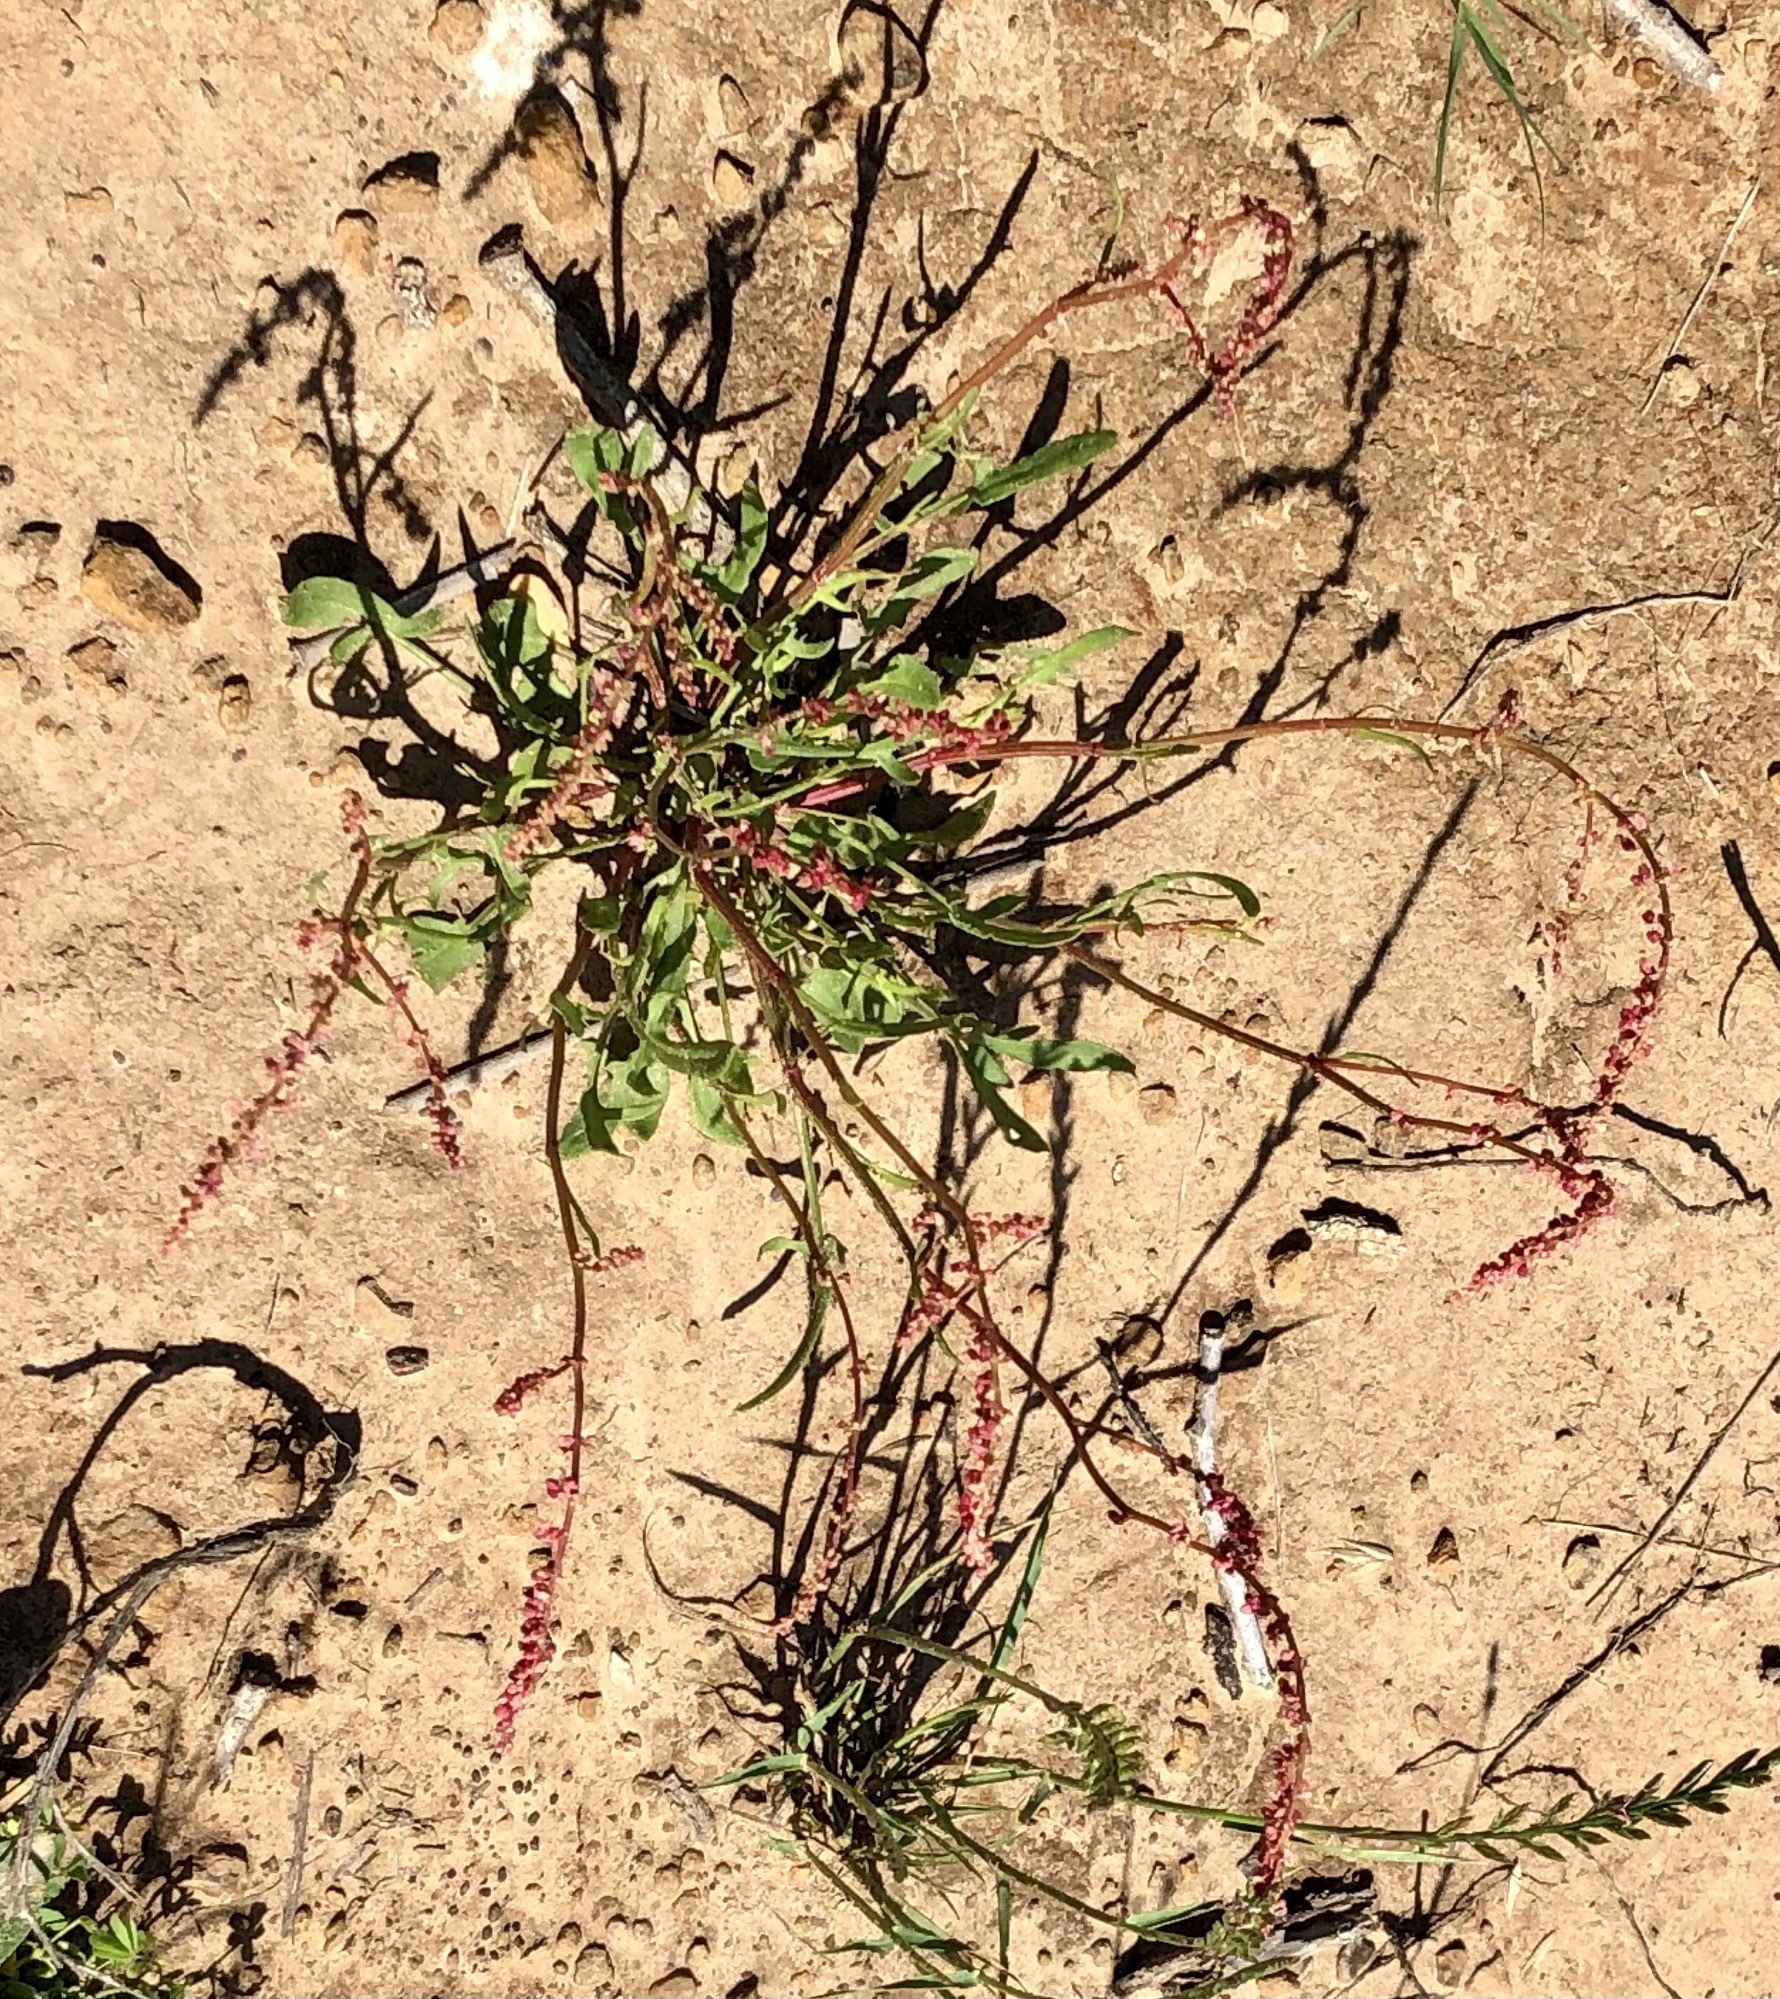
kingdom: Plantae
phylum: Tracheophyta
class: Magnoliopsida
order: Caryophyllales
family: Polygonaceae
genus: Rumex
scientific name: Rumex hastatulus
